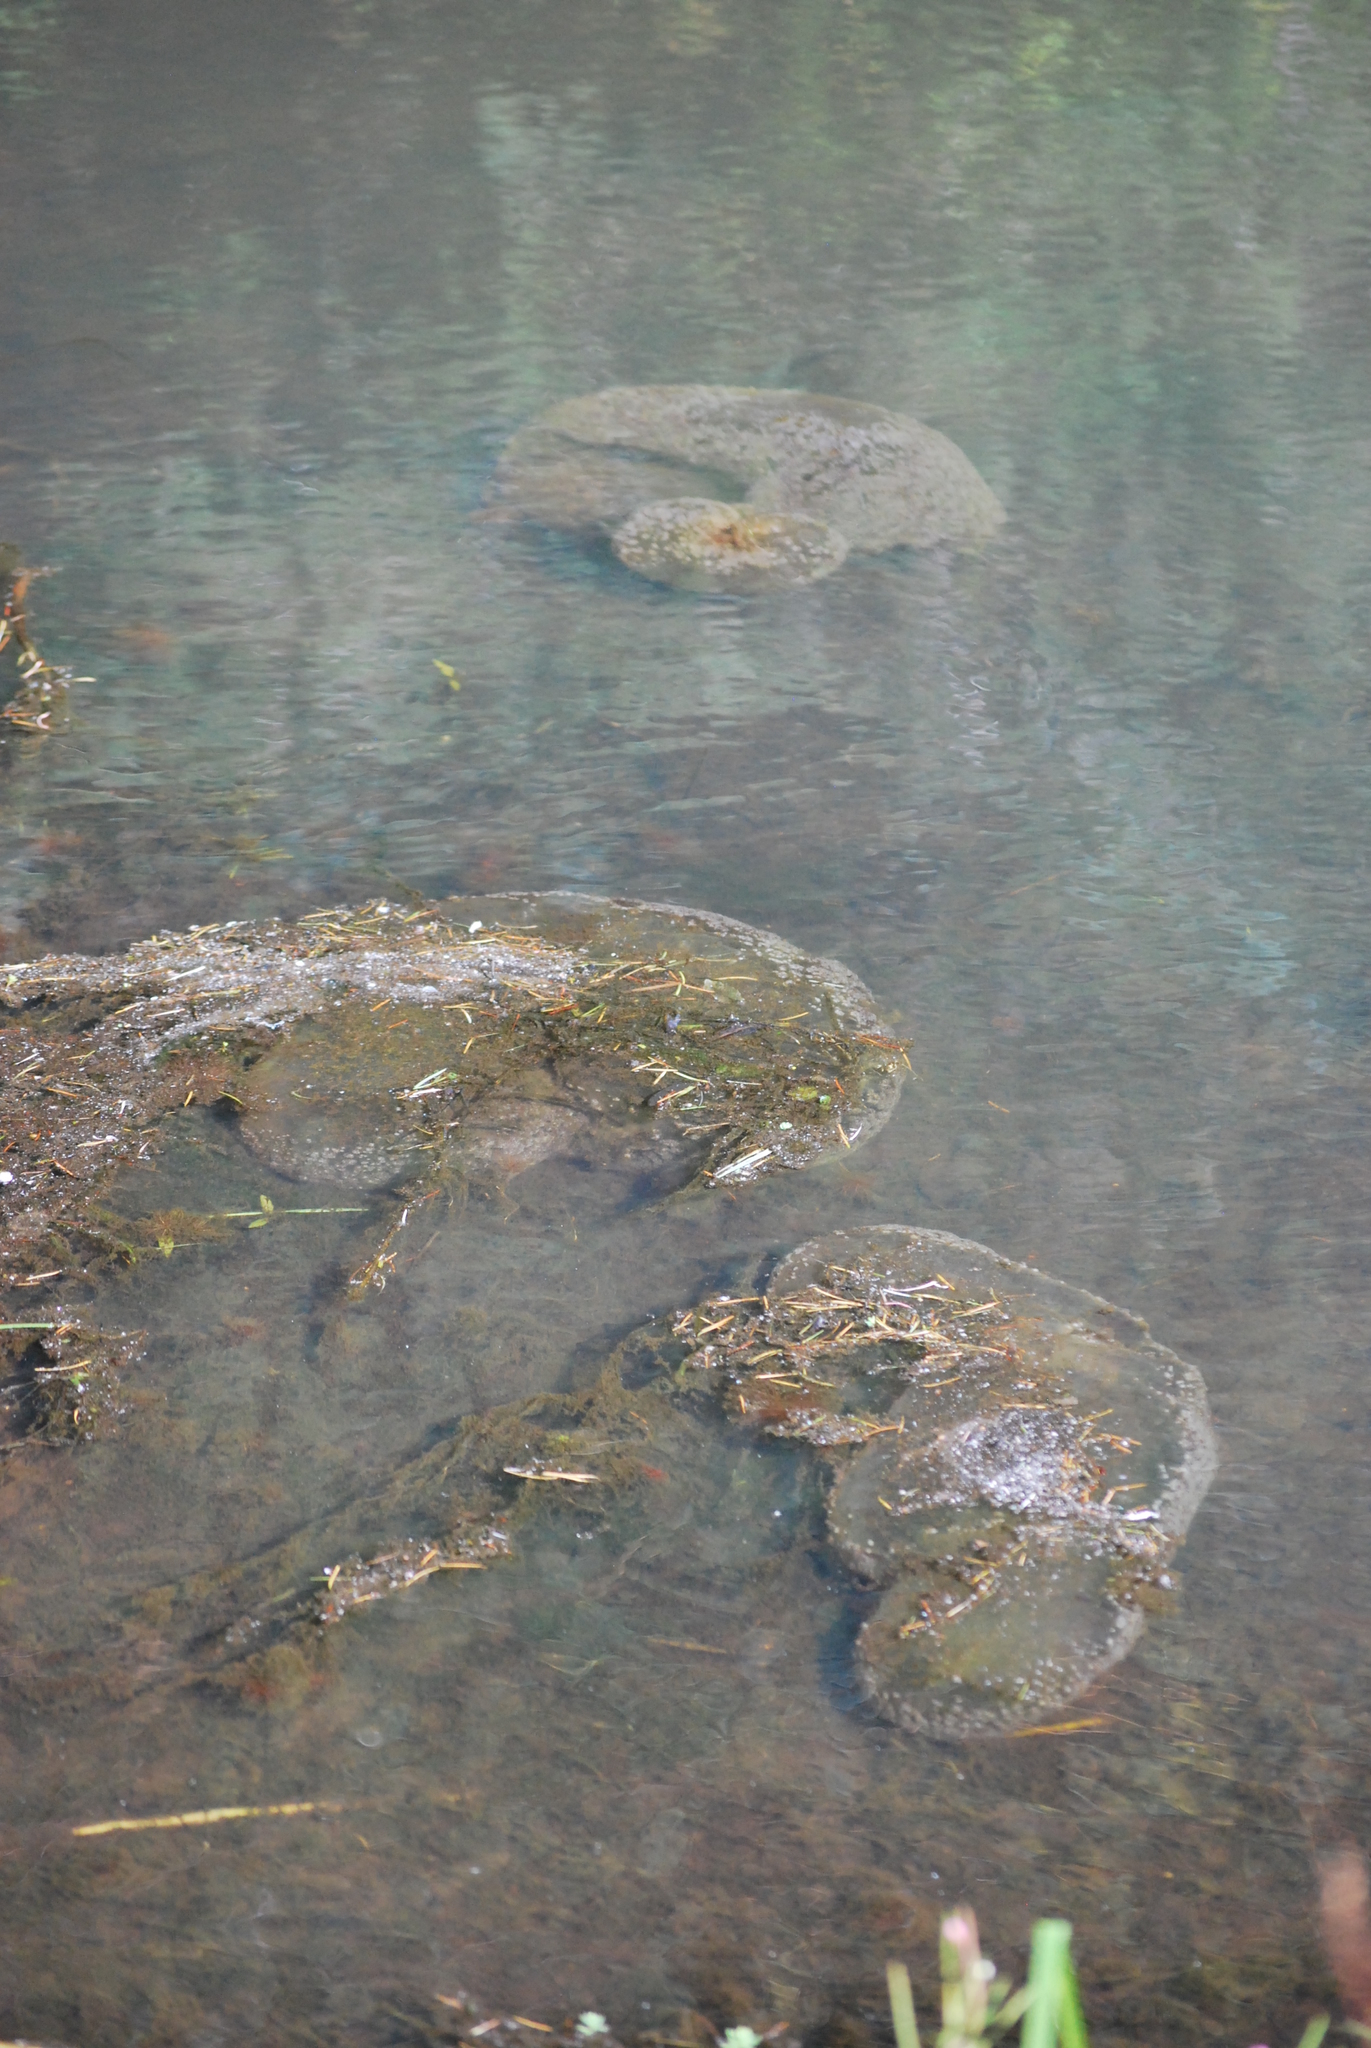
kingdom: Animalia
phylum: Bryozoa
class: Phylactolaemata
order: Plumatellida
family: Pectinatellidae
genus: Pectinatella
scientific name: Pectinatella magnifica
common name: Magnificent bryozoan
